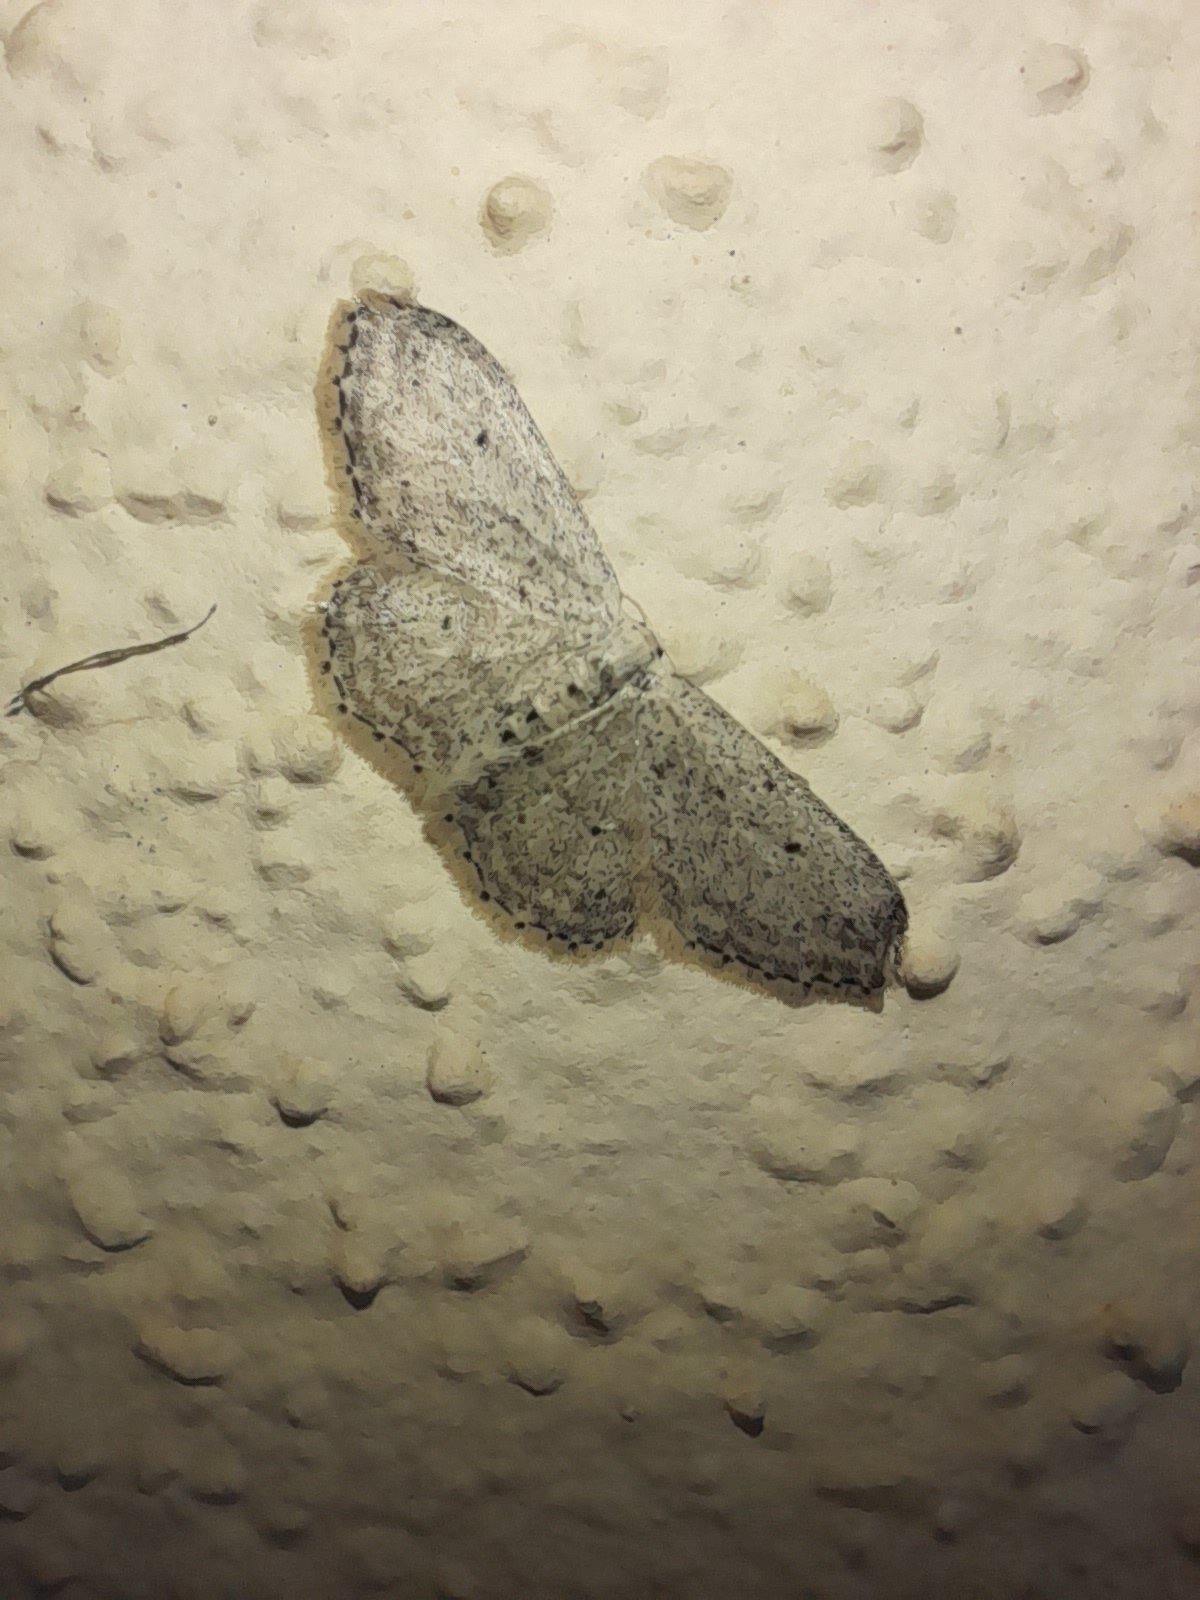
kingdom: Animalia
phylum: Arthropoda
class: Insecta
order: Lepidoptera
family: Geometridae
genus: Idaea
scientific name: Idaea seriata
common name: Small dusty wave
